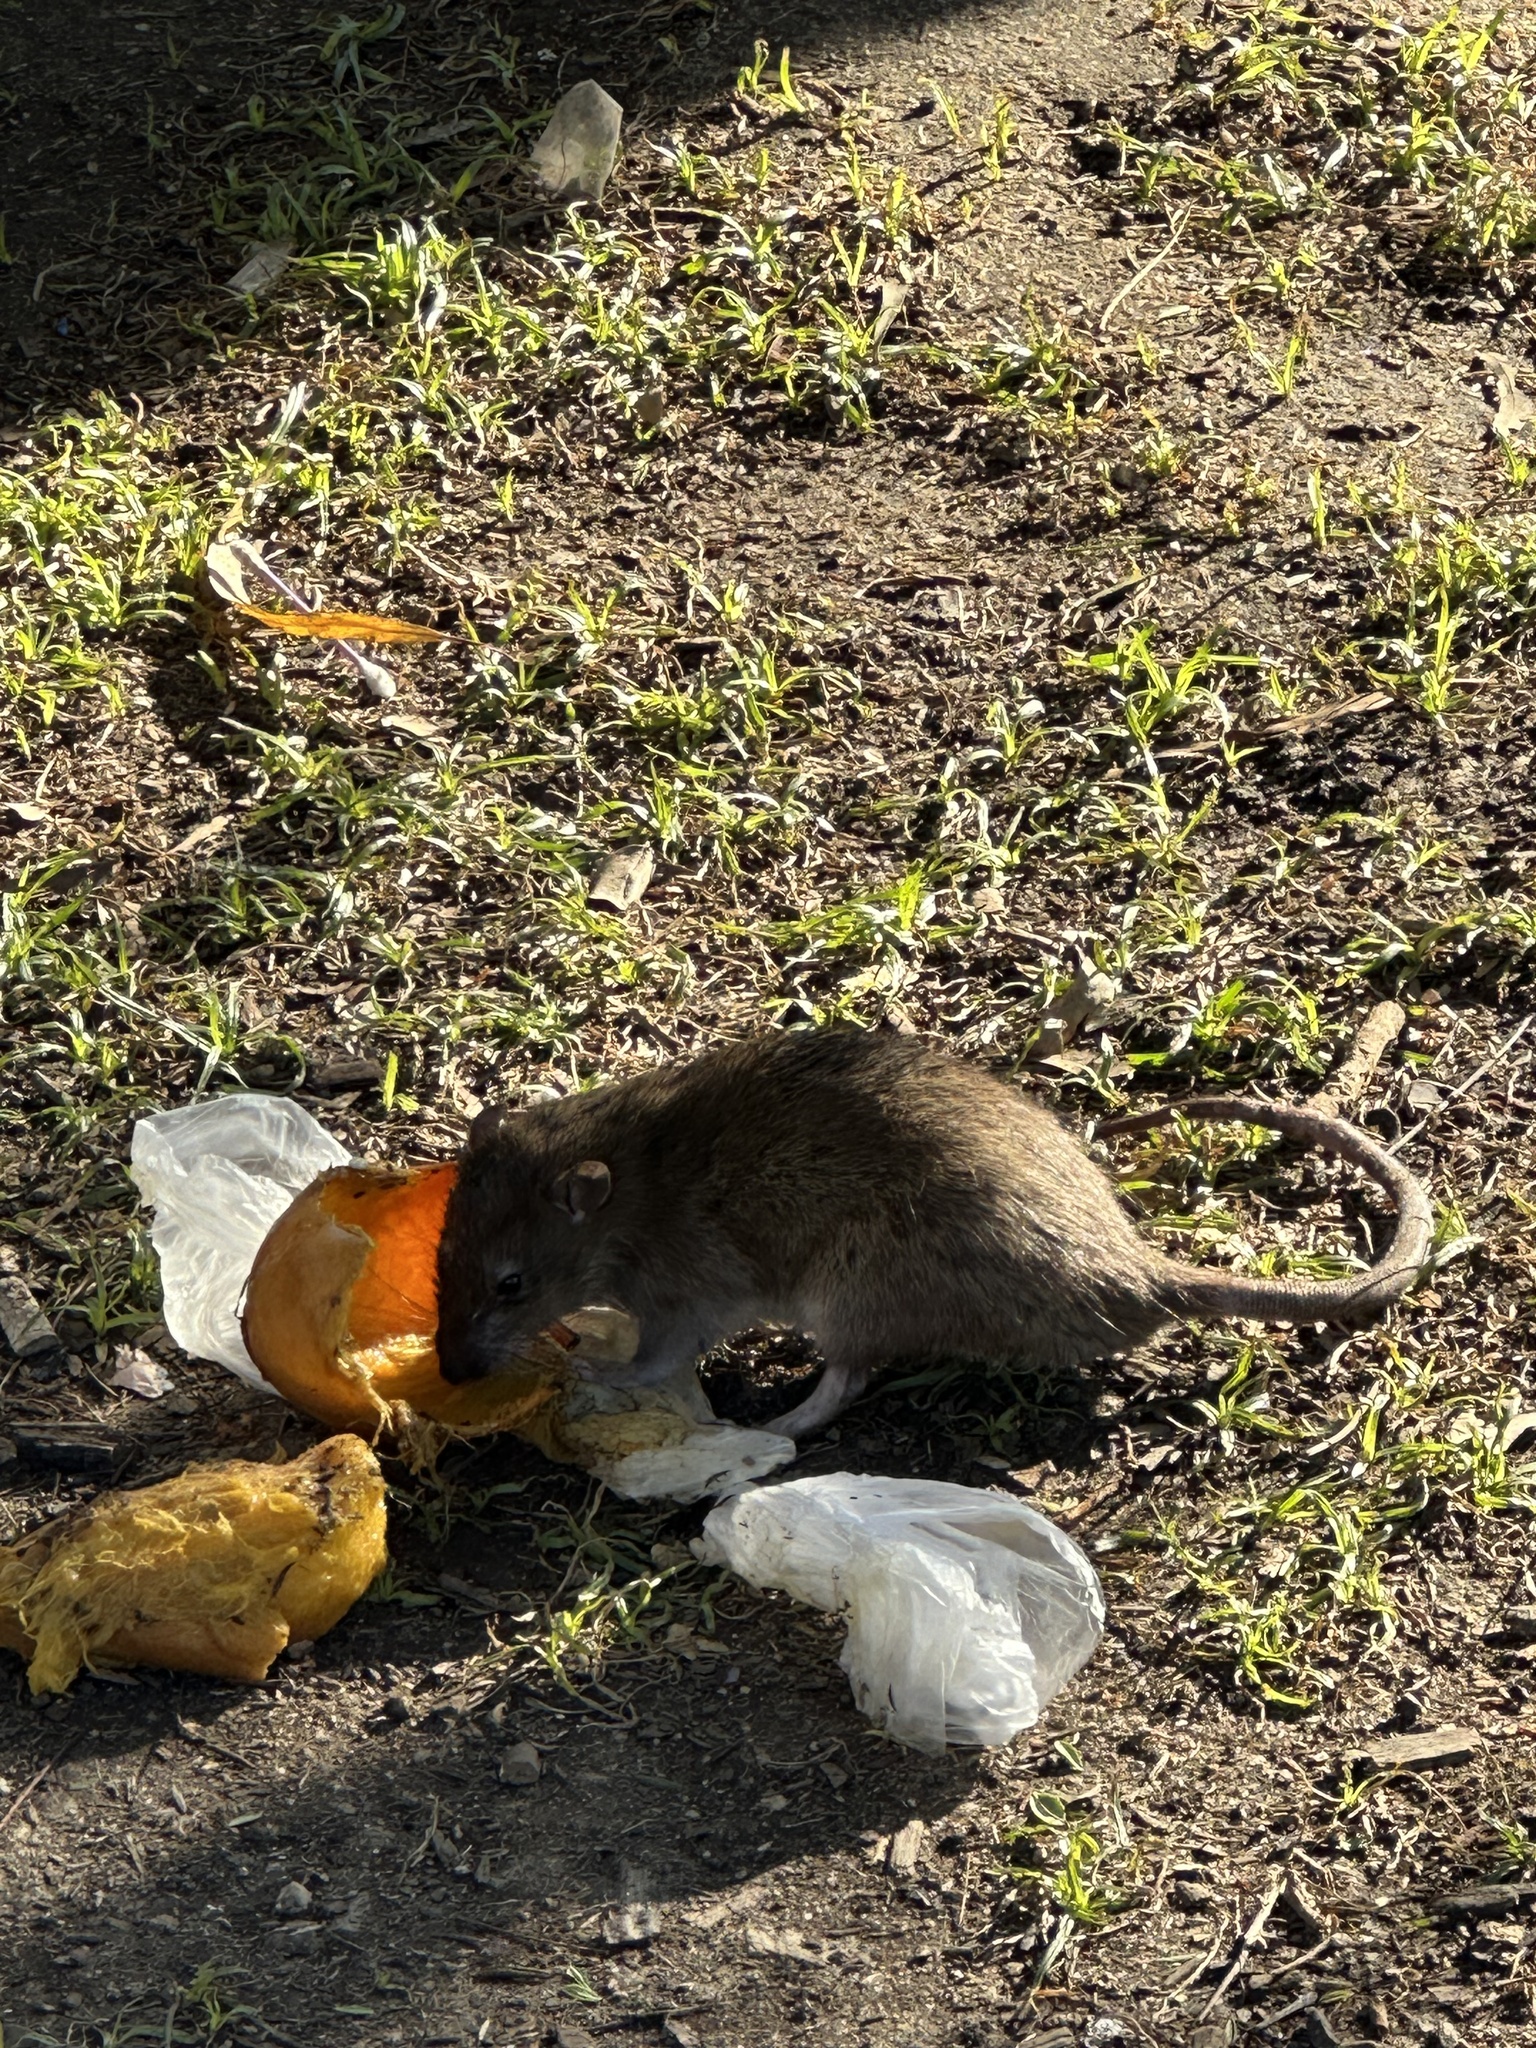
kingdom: Animalia
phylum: Chordata
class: Mammalia
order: Rodentia
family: Muridae
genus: Rattus
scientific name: Rattus norvegicus
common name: Brown rat
